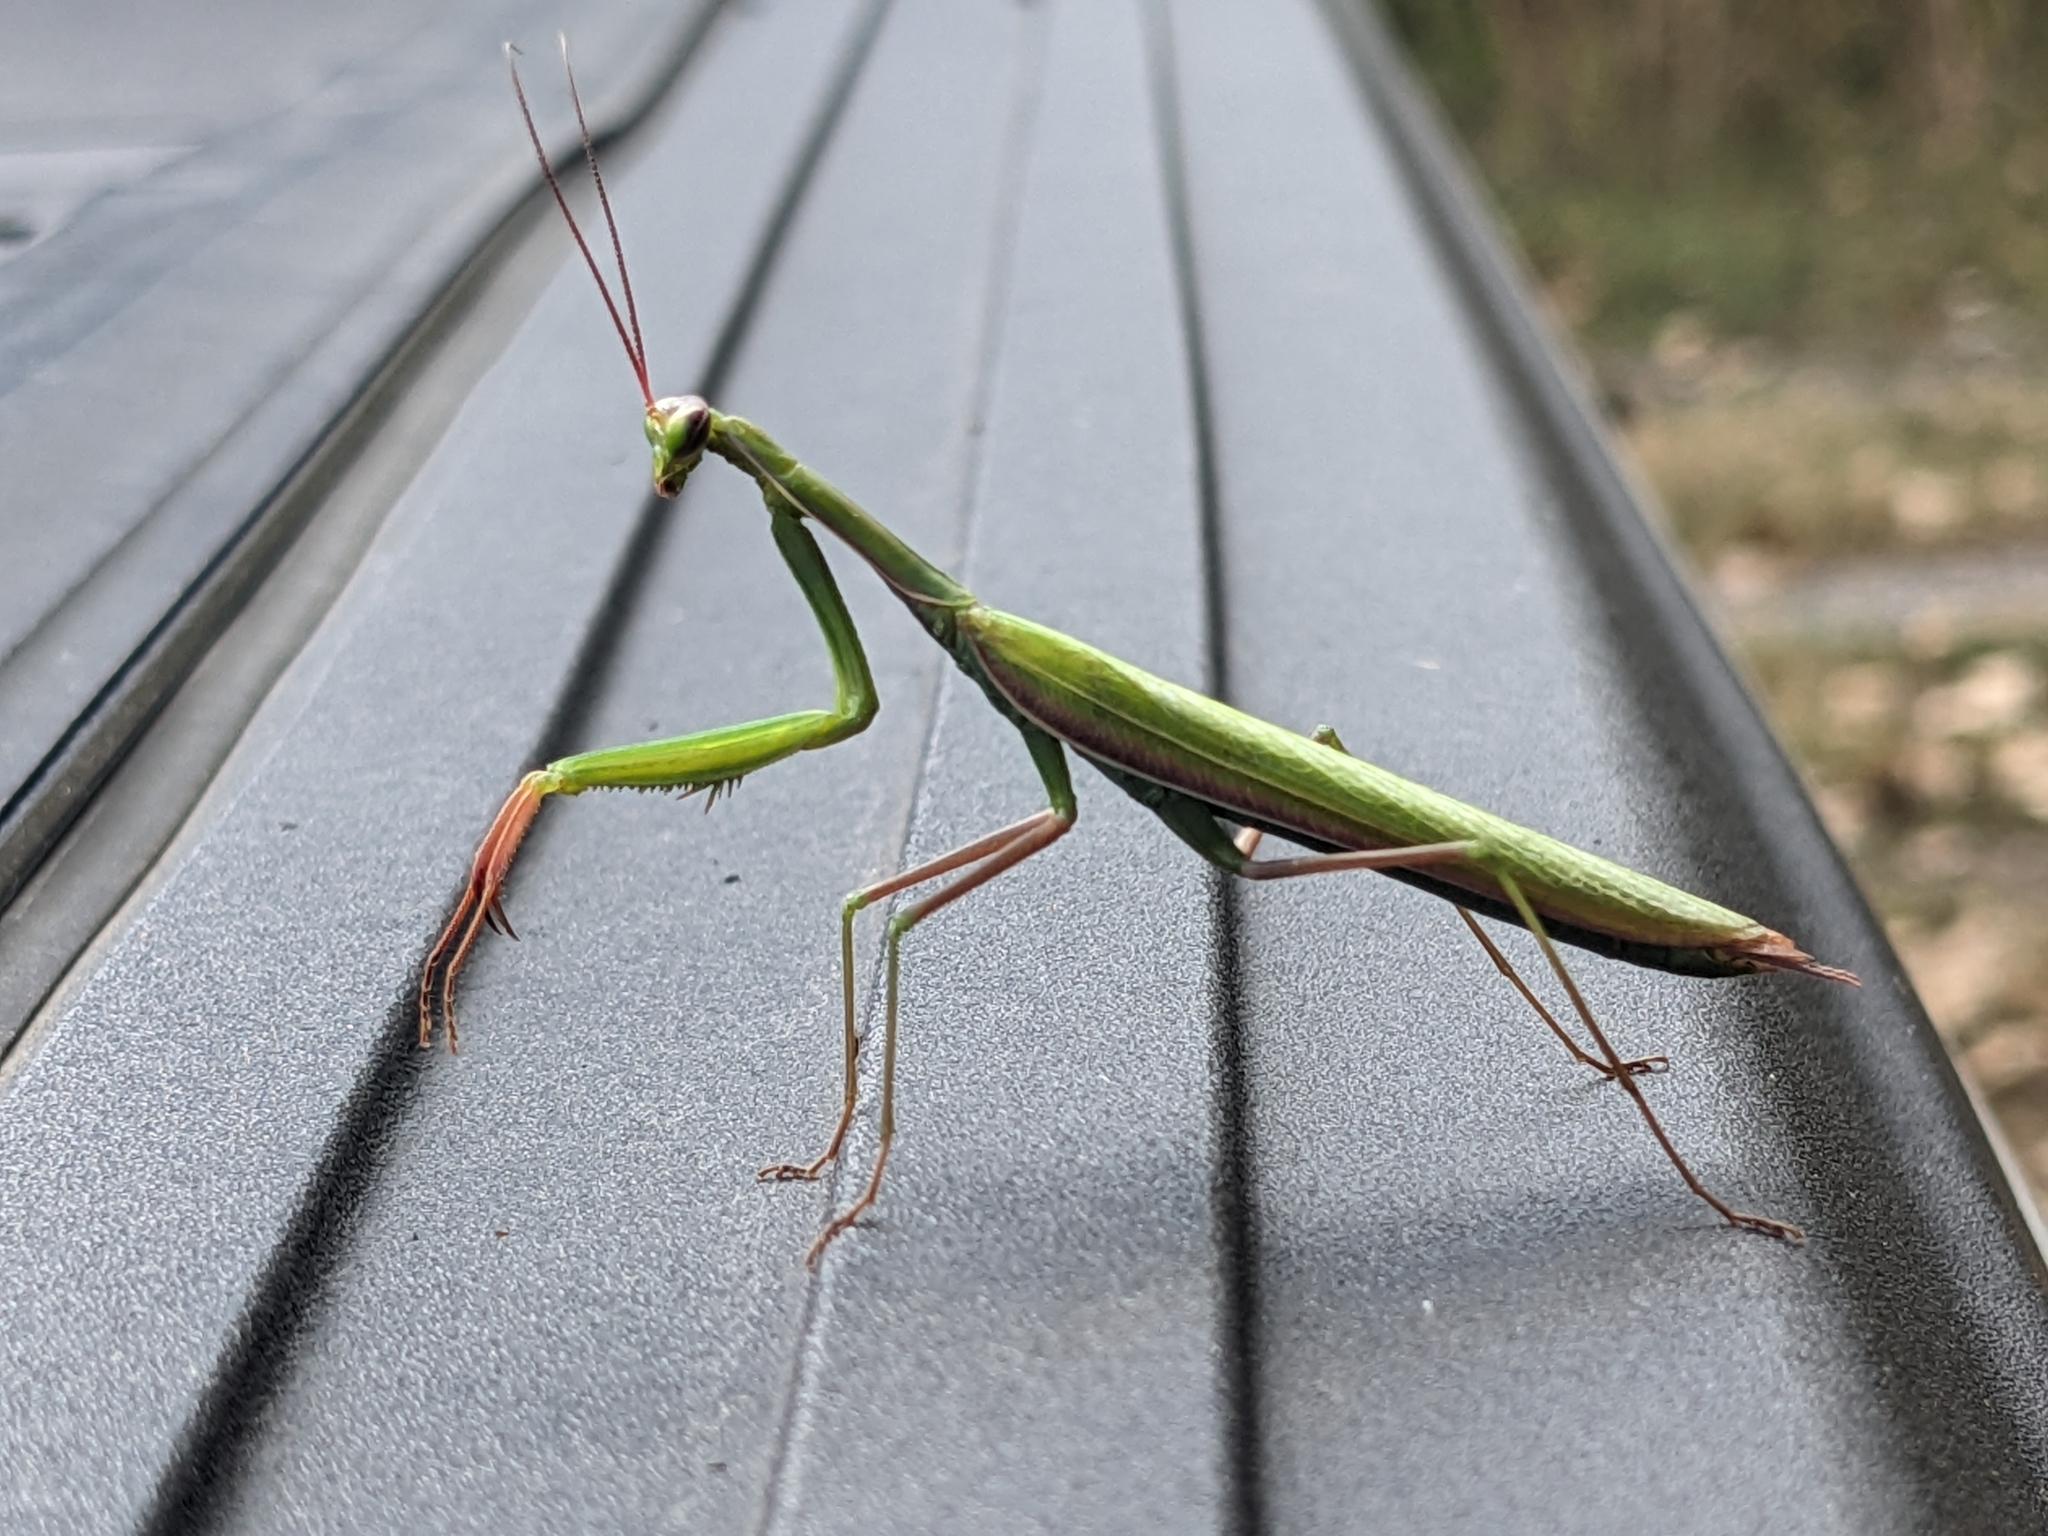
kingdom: Animalia
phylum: Arthropoda
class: Insecta
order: Mantodea
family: Mantidae
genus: Mantis
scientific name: Mantis religiosa
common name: Praying mantis
